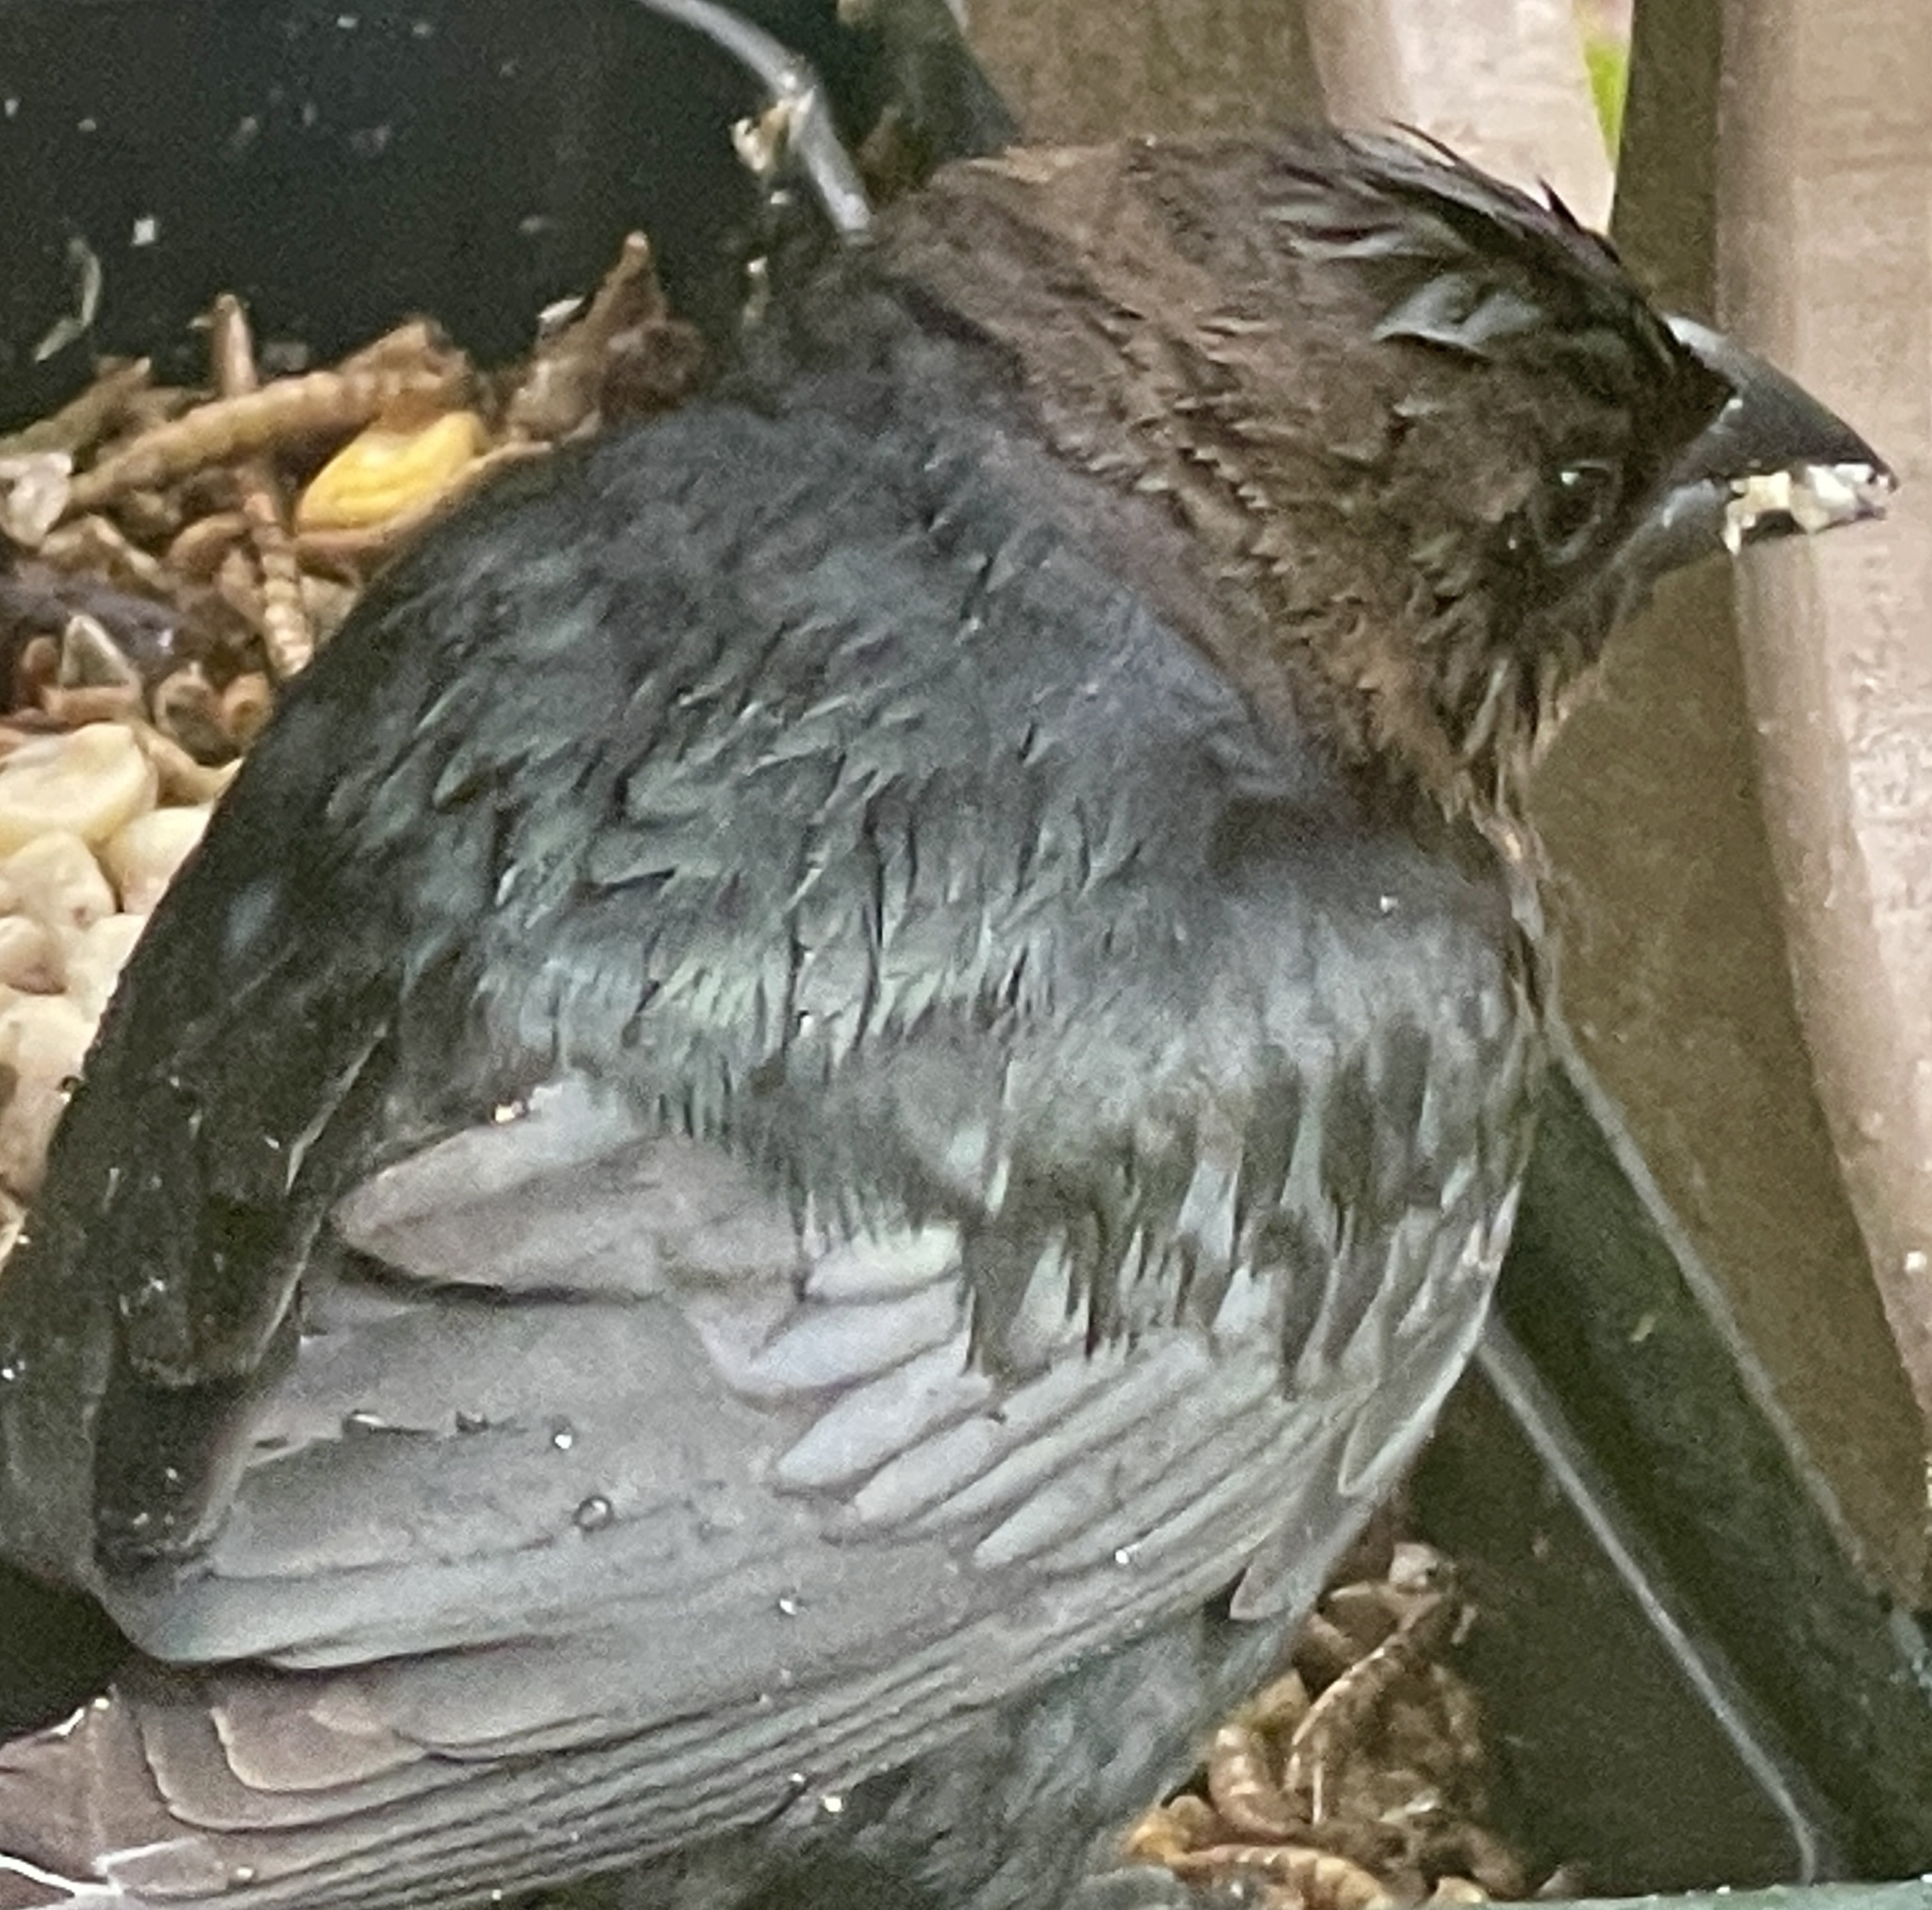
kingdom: Animalia
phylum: Chordata
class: Aves
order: Passeriformes
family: Icteridae
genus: Molothrus
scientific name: Molothrus ater
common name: Brown-headed cowbird
